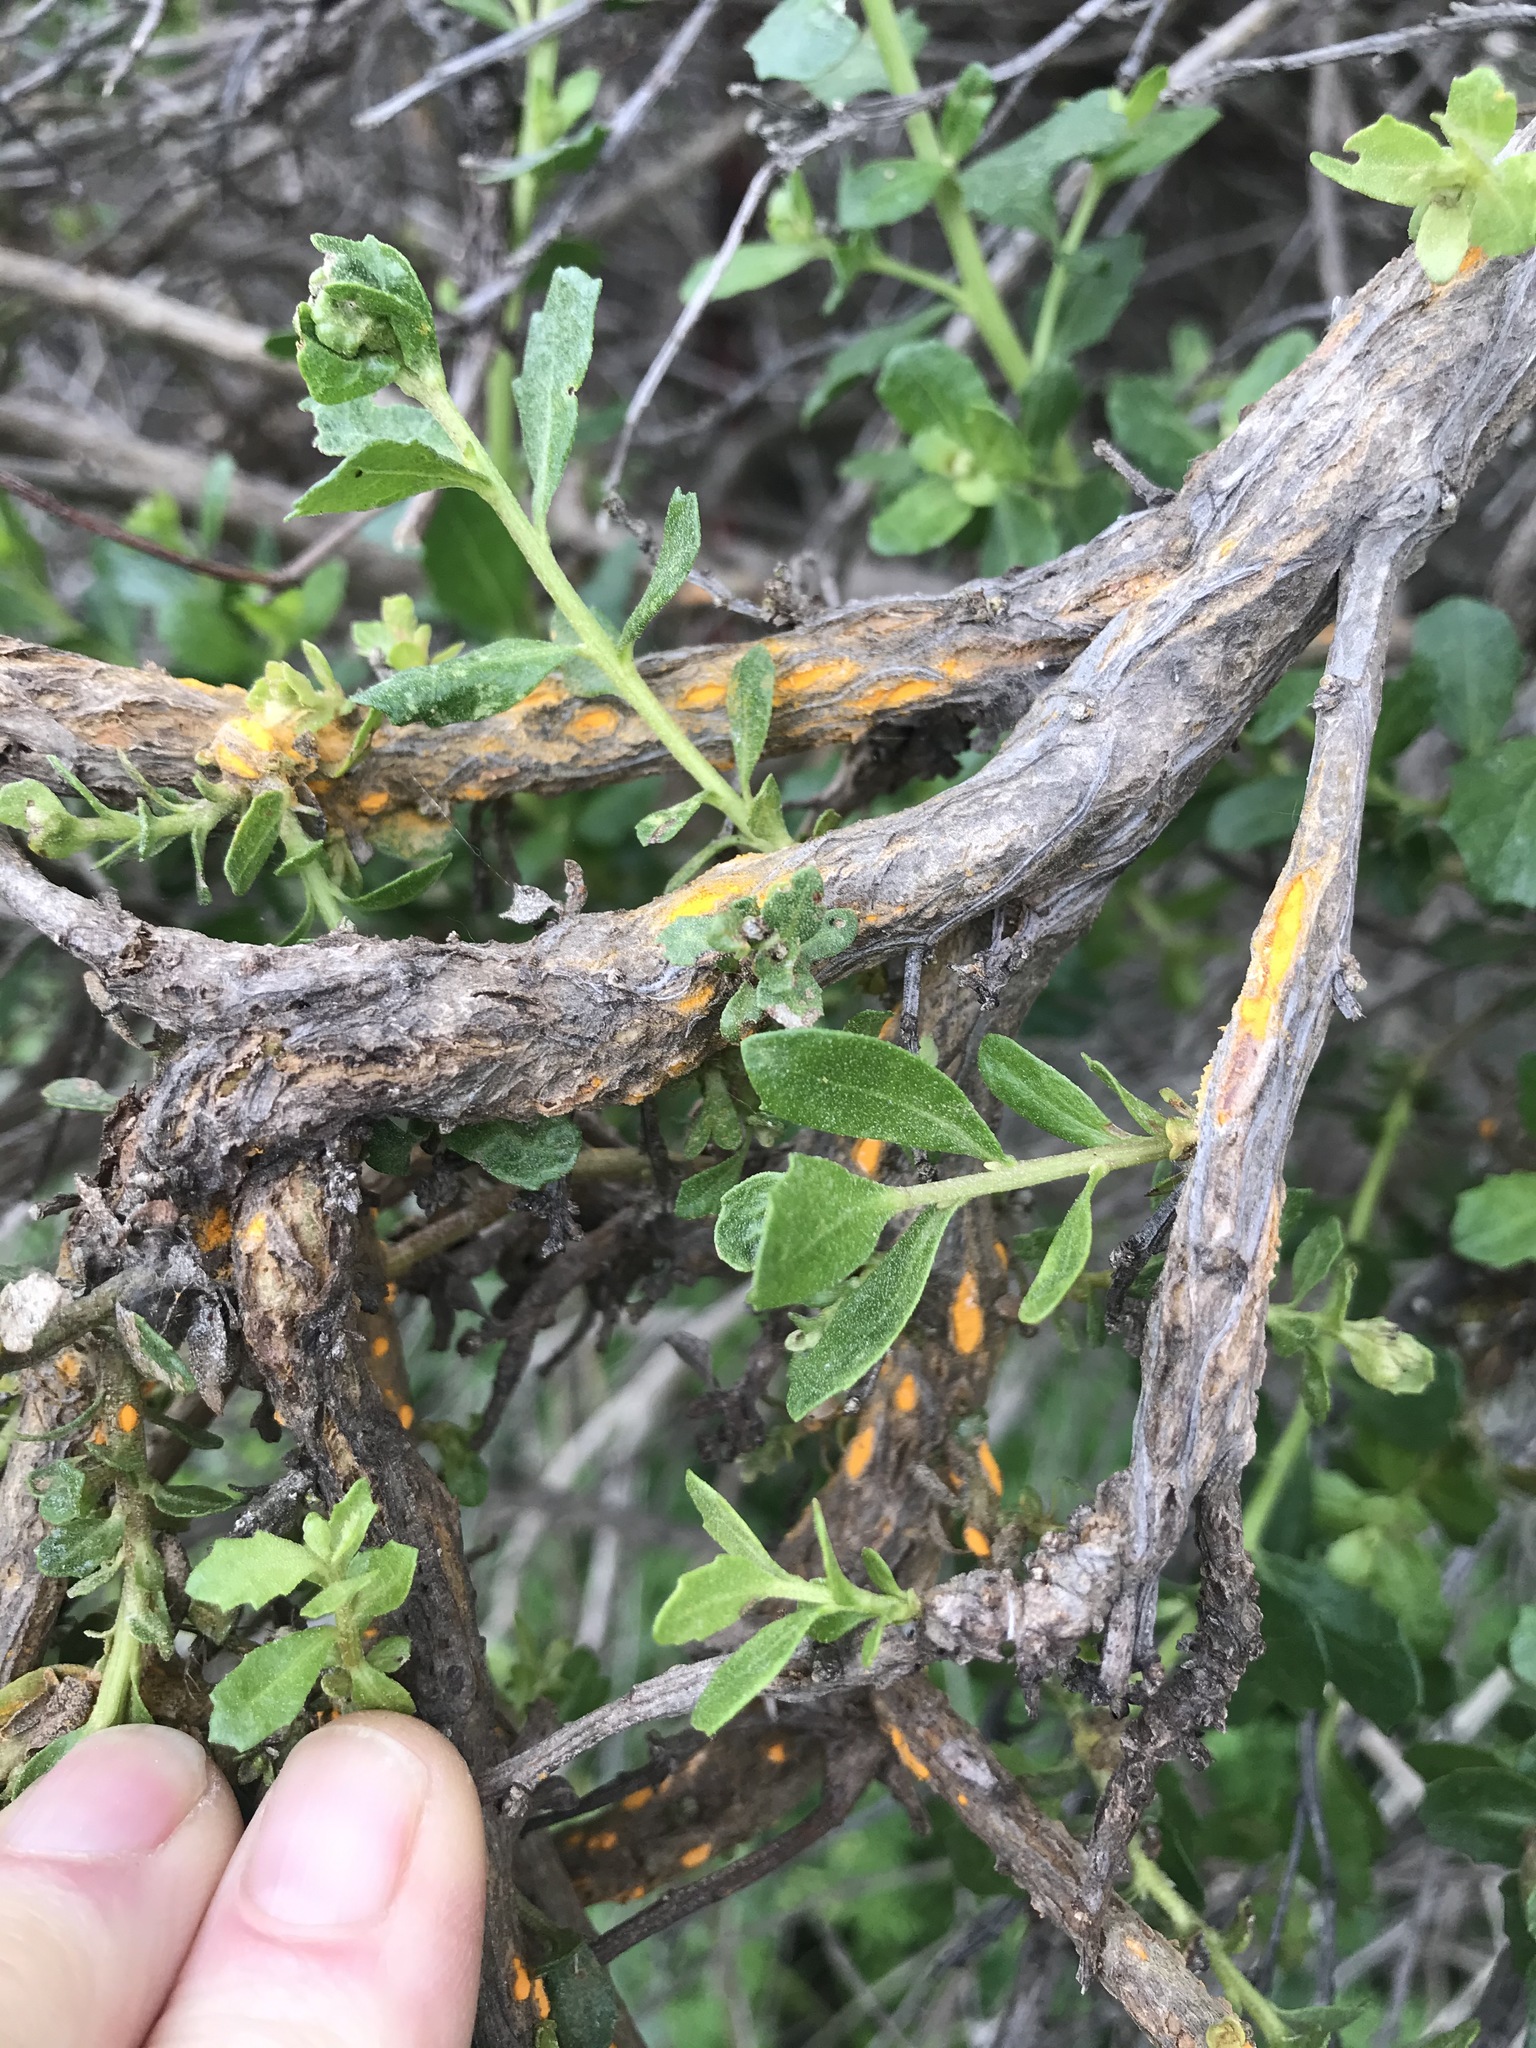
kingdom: Fungi
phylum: Basidiomycota
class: Pucciniomycetes
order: Pucciniales
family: Pucciniaceae
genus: Eriosporangium
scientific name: Eriosporangium evadens
